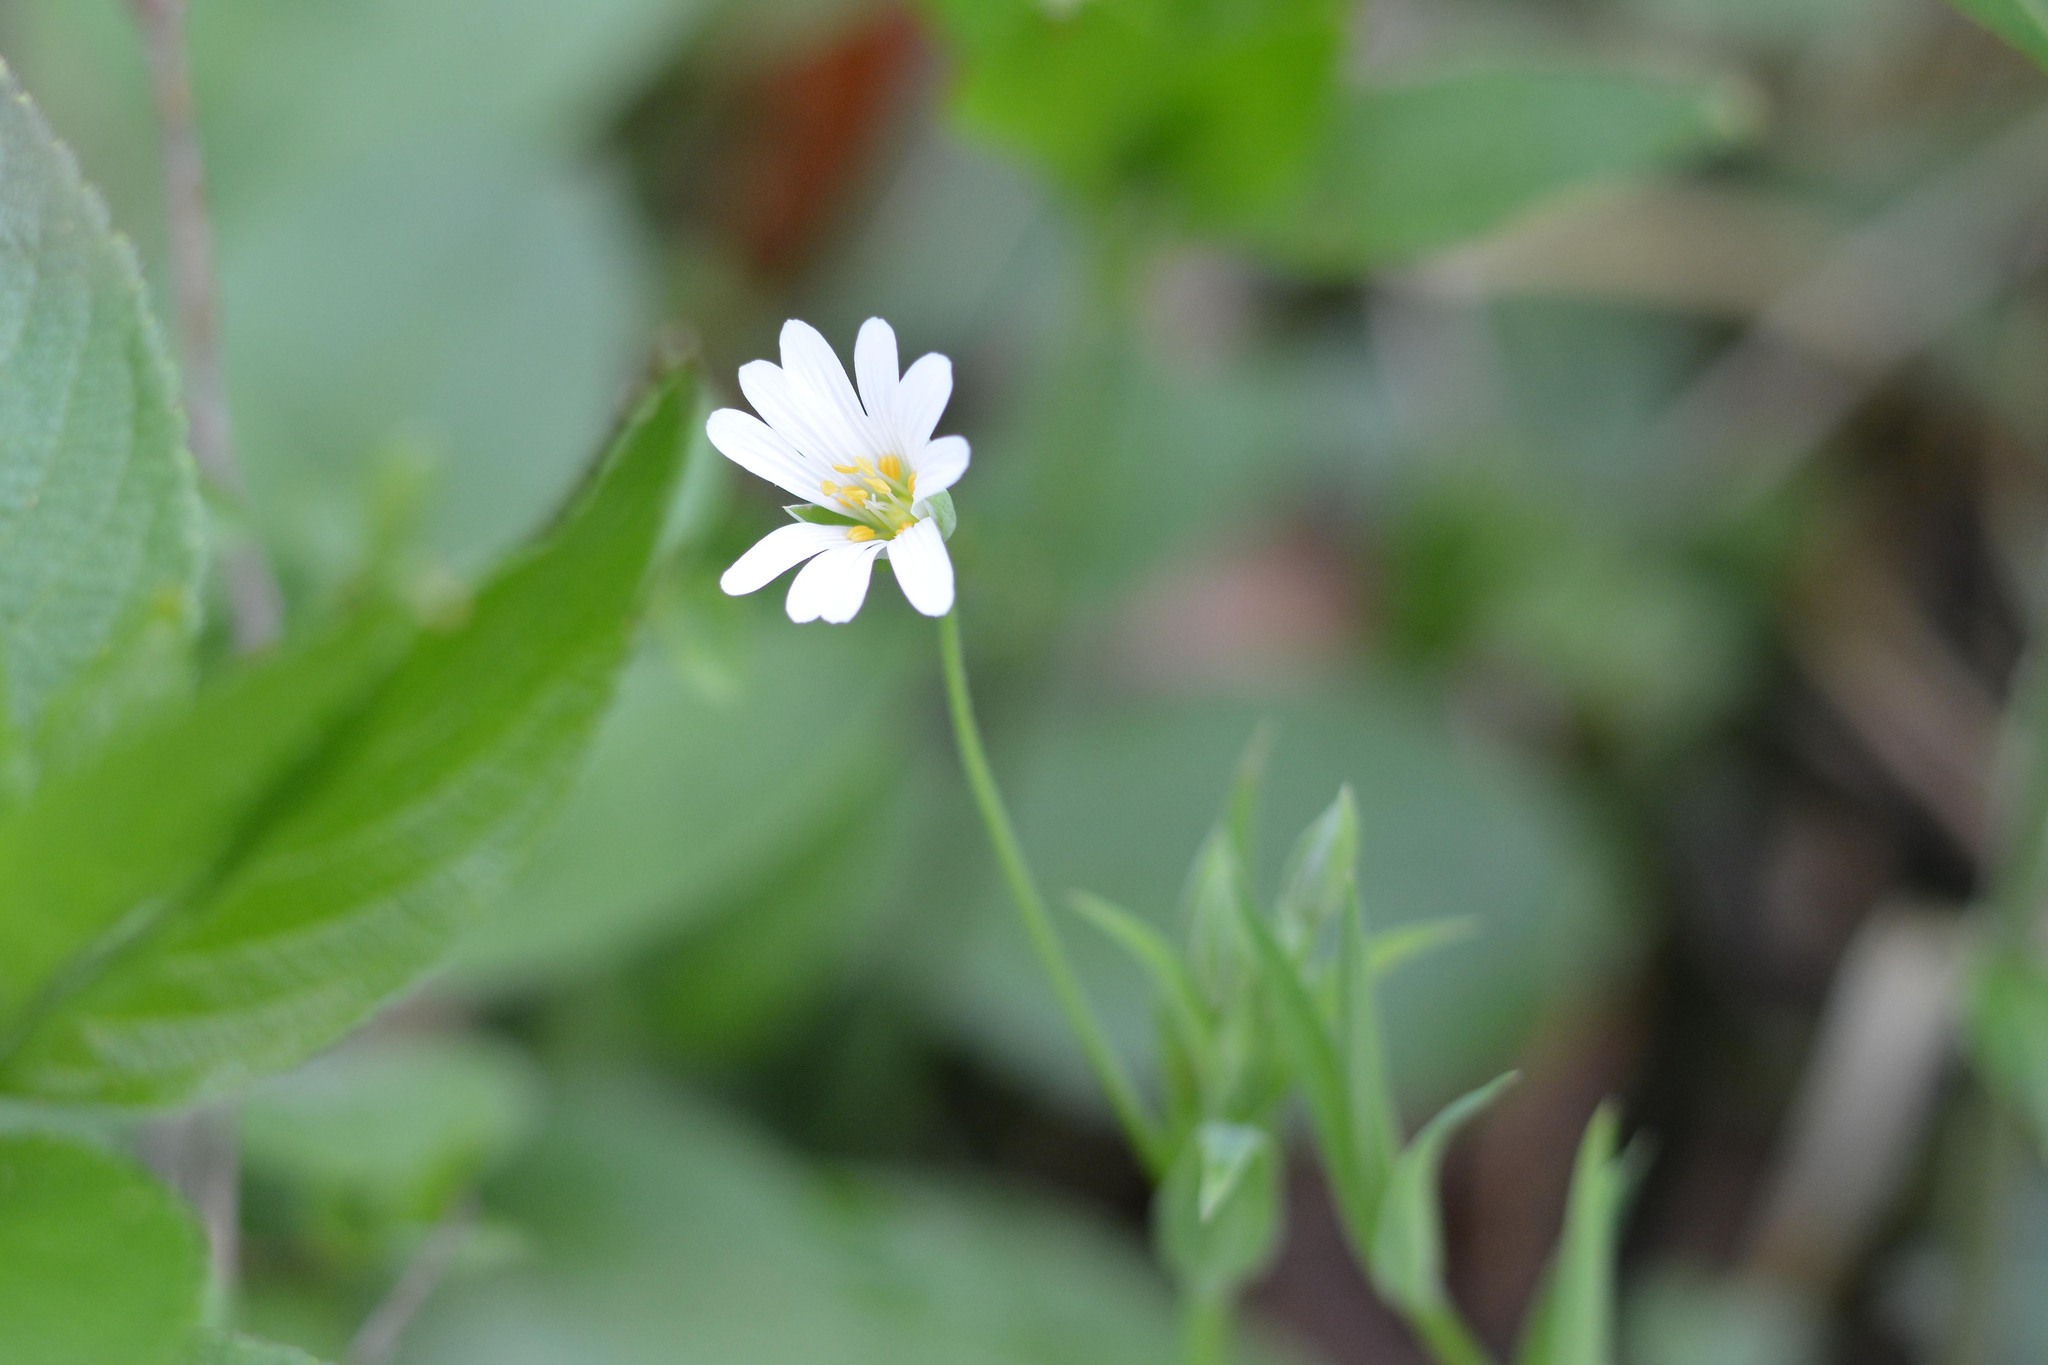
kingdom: Plantae
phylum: Tracheophyta
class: Magnoliopsida
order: Caryophyllales
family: Caryophyllaceae
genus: Rabelera
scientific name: Rabelera holostea
